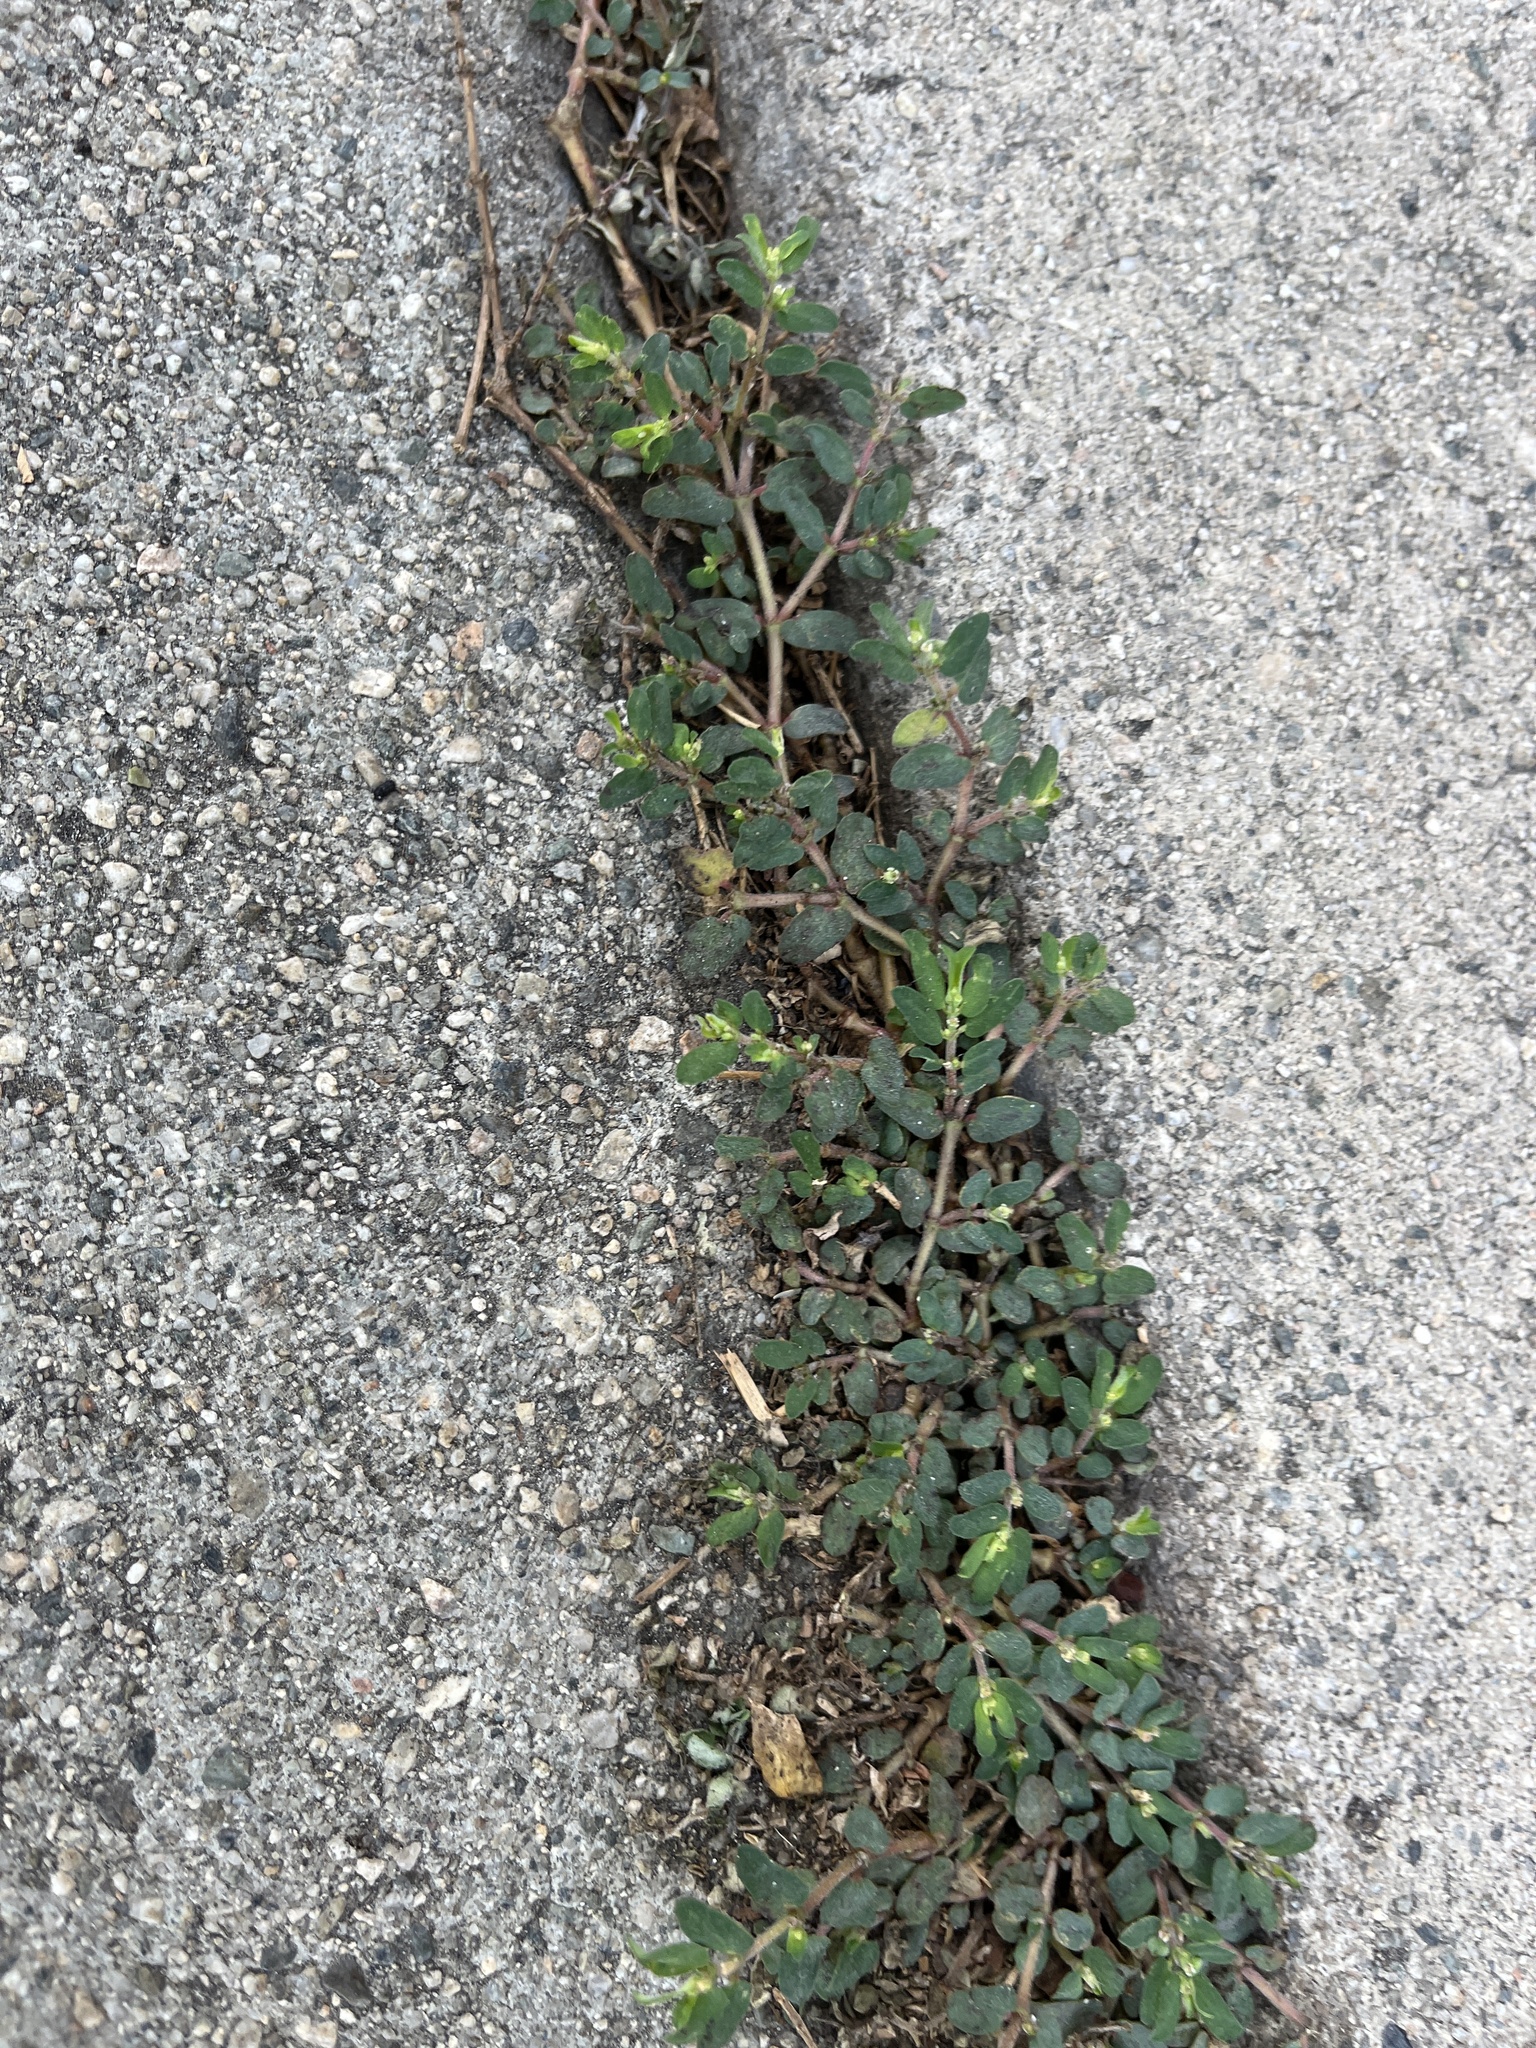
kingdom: Plantae
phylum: Tracheophyta
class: Magnoliopsida
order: Malpighiales
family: Euphorbiaceae
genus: Euphorbia
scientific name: Euphorbia maculata
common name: Spotted spurge
